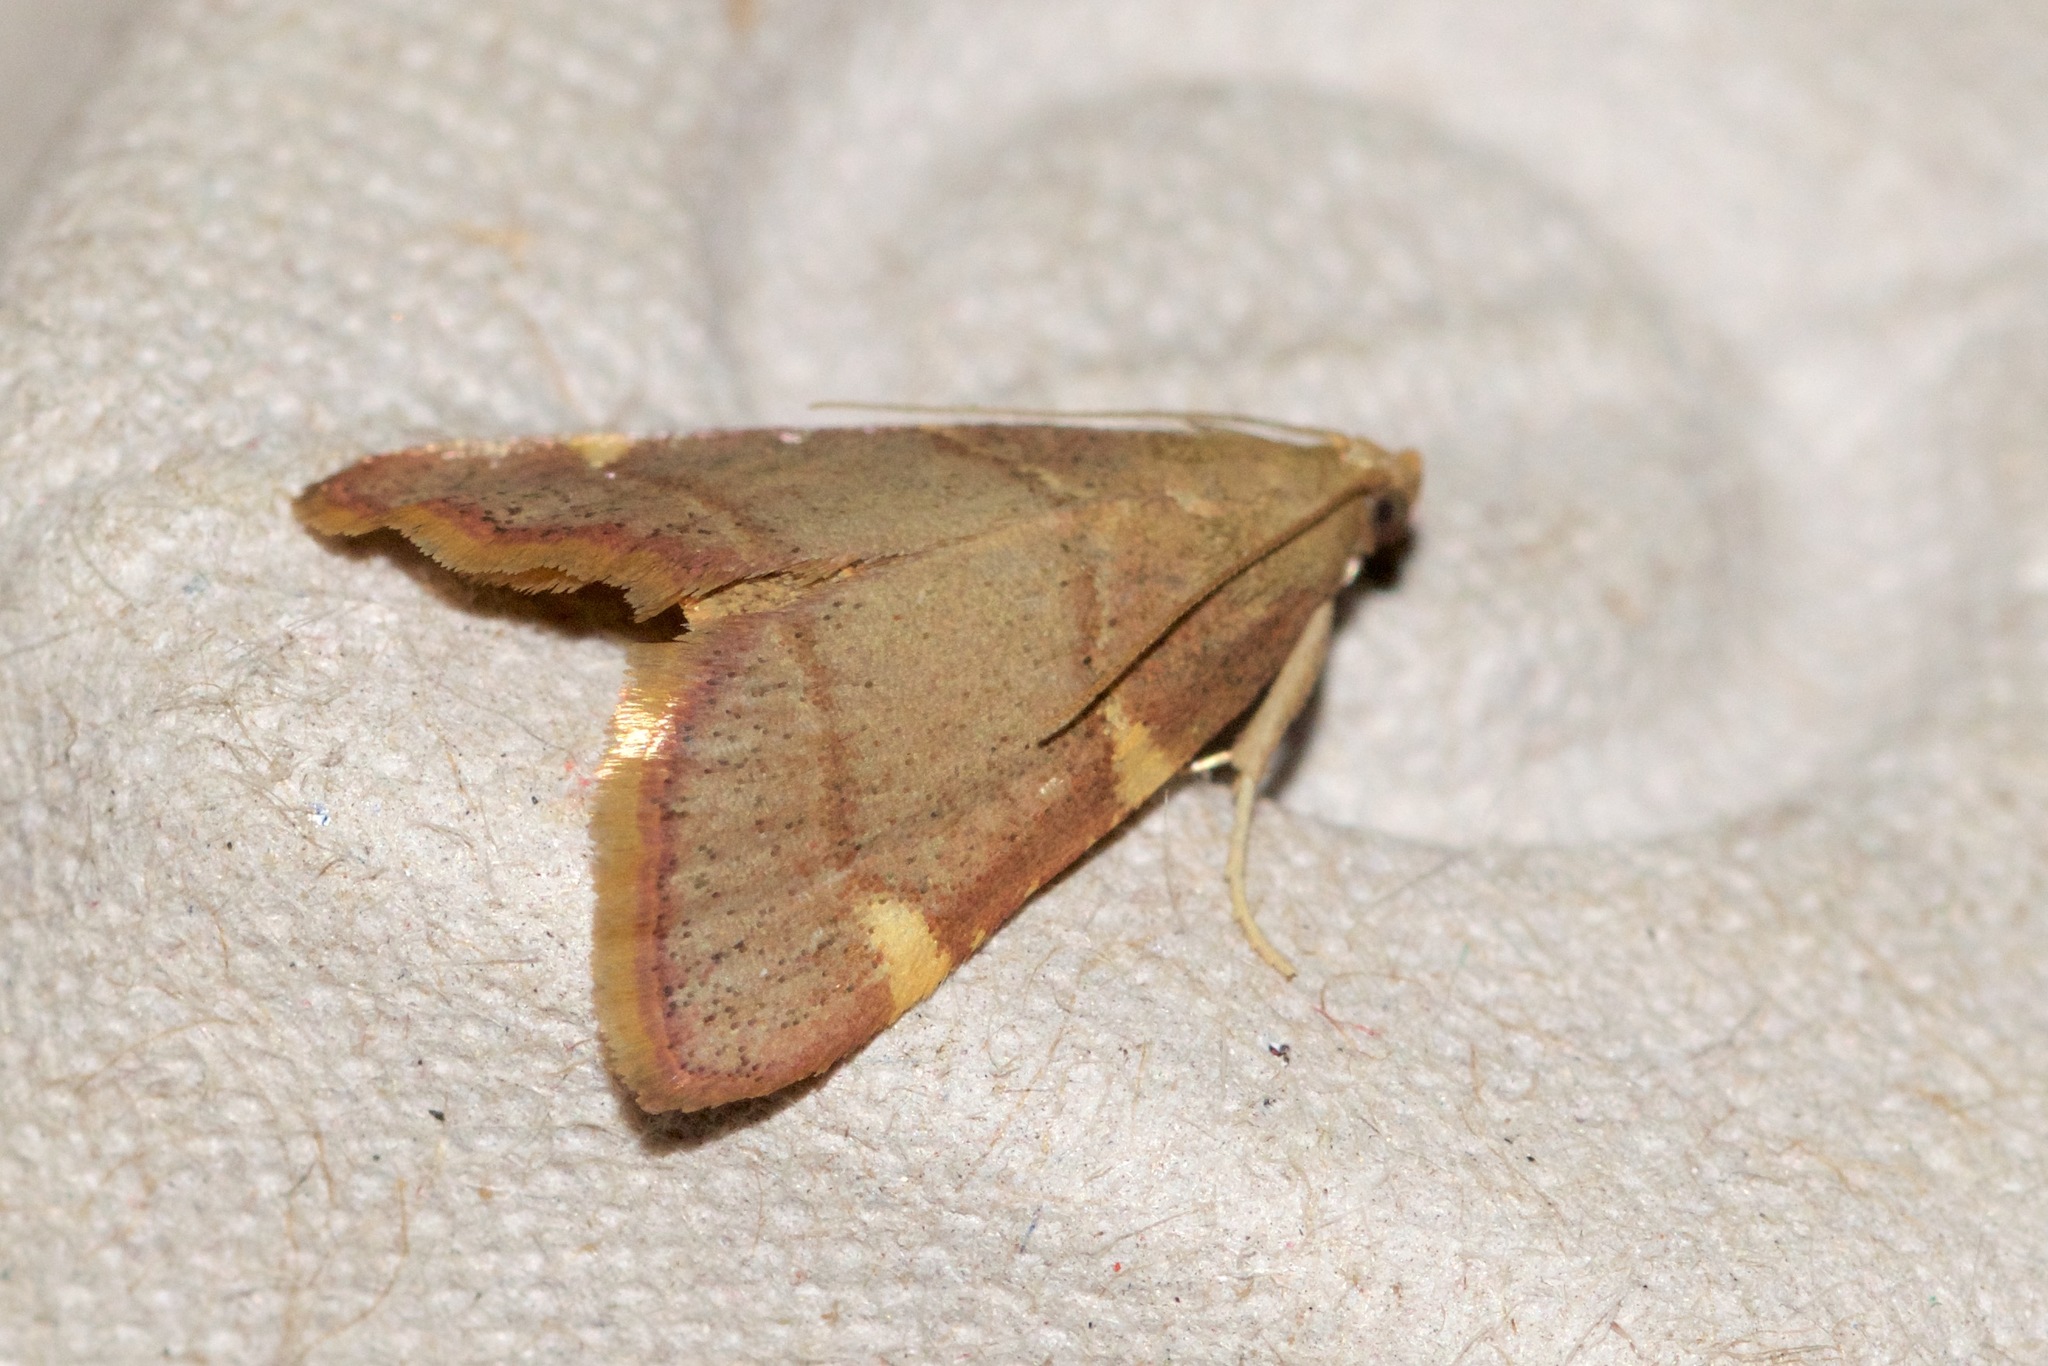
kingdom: Animalia
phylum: Arthropoda
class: Insecta
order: Lepidoptera
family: Pyralidae
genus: Hypsopygia
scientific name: Hypsopygia olinalis
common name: Yellow-fringed dolichomia moth
